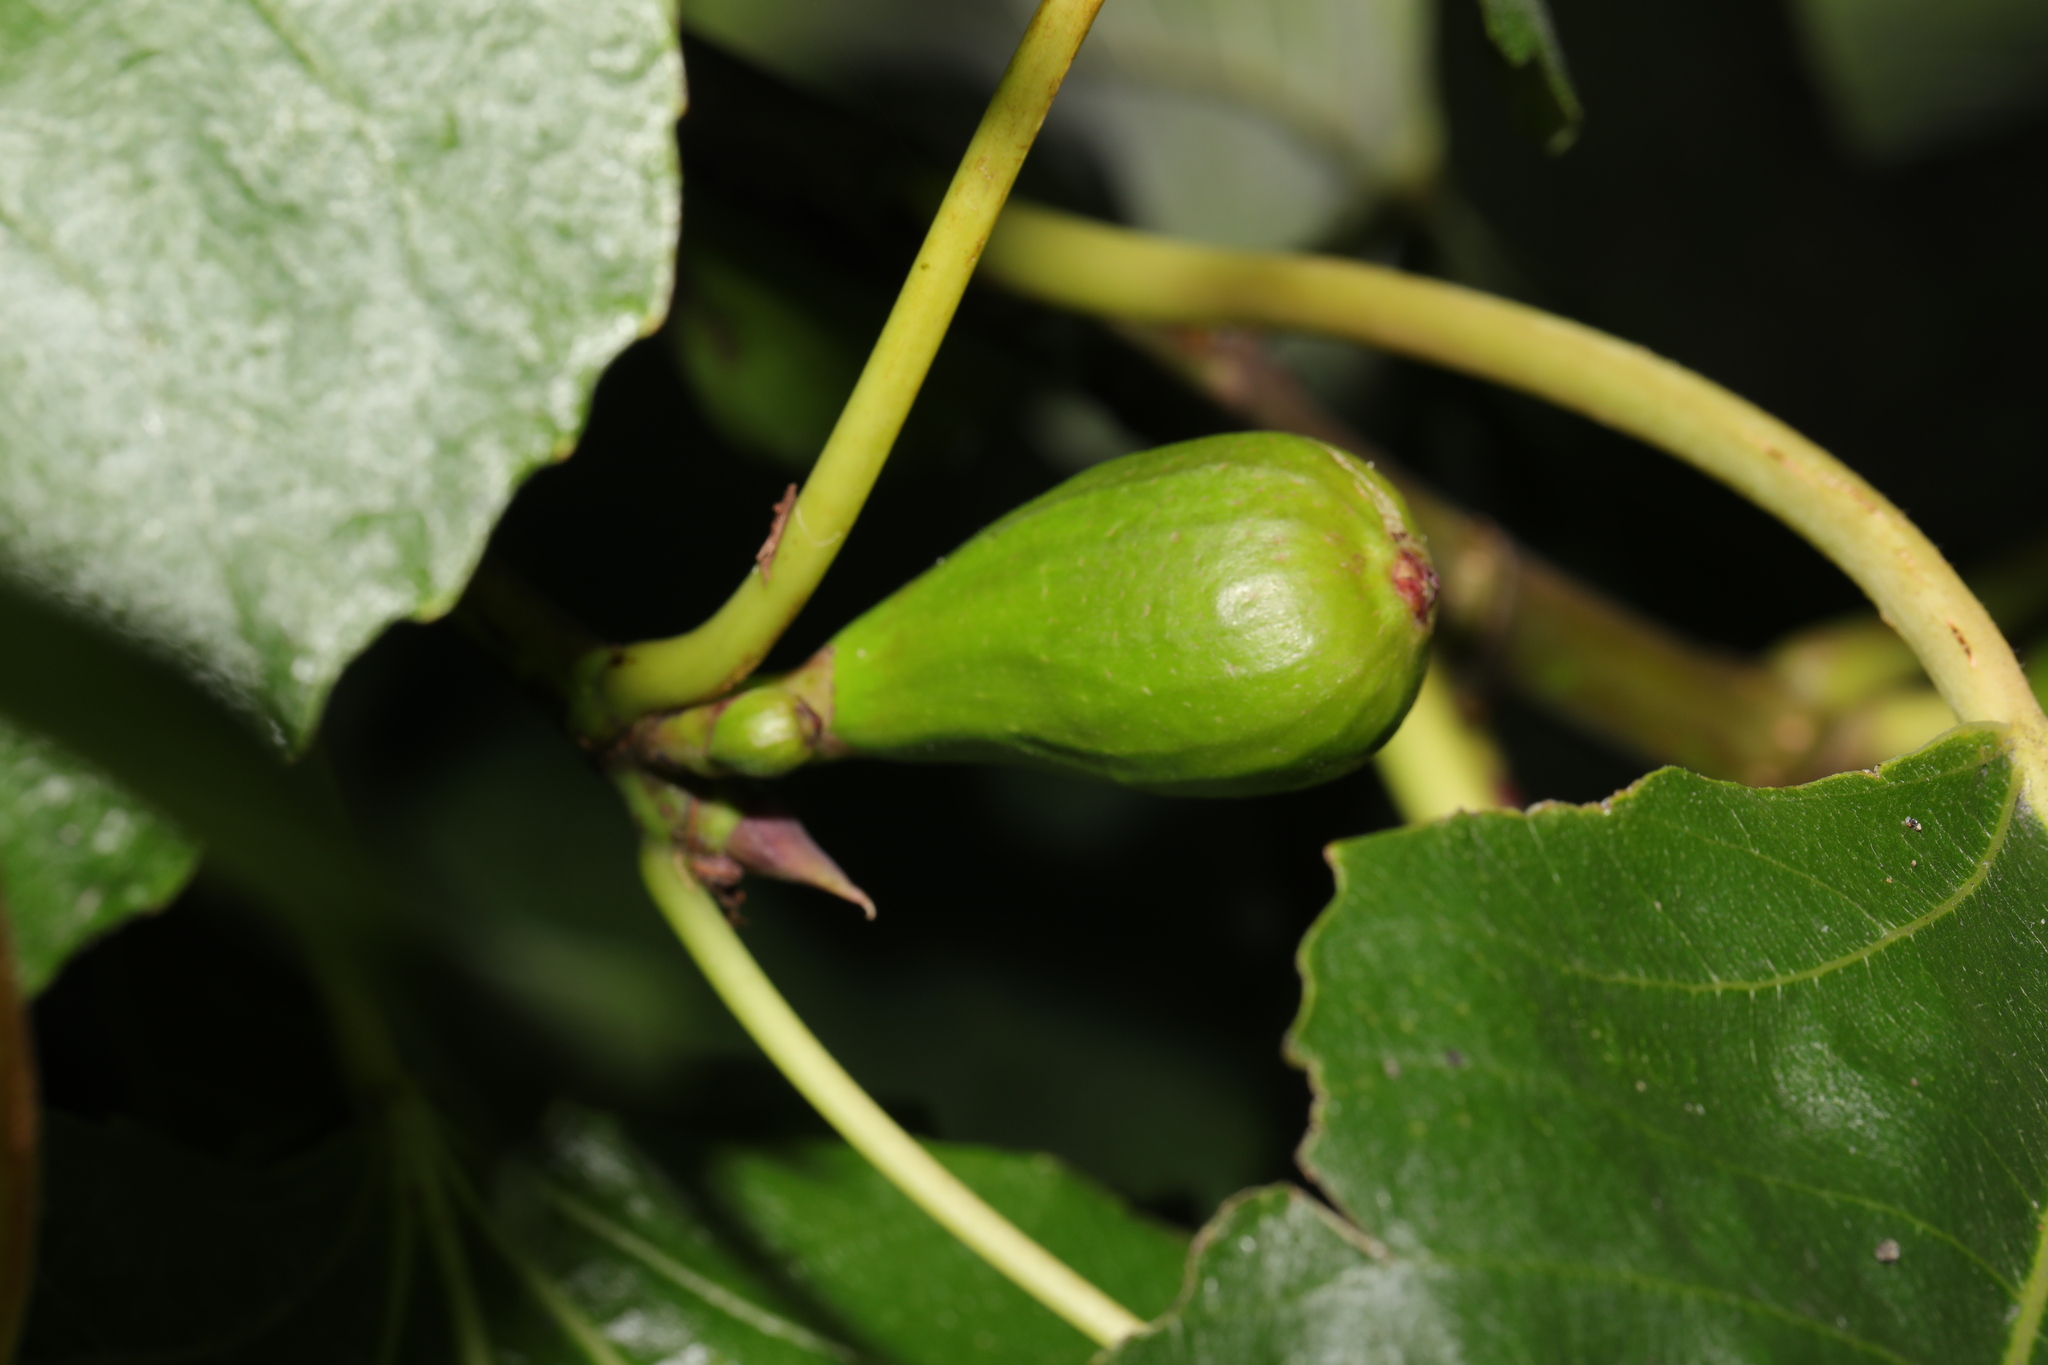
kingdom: Plantae
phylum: Tracheophyta
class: Magnoliopsida
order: Rosales
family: Moraceae
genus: Ficus
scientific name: Ficus carica
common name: Fig
